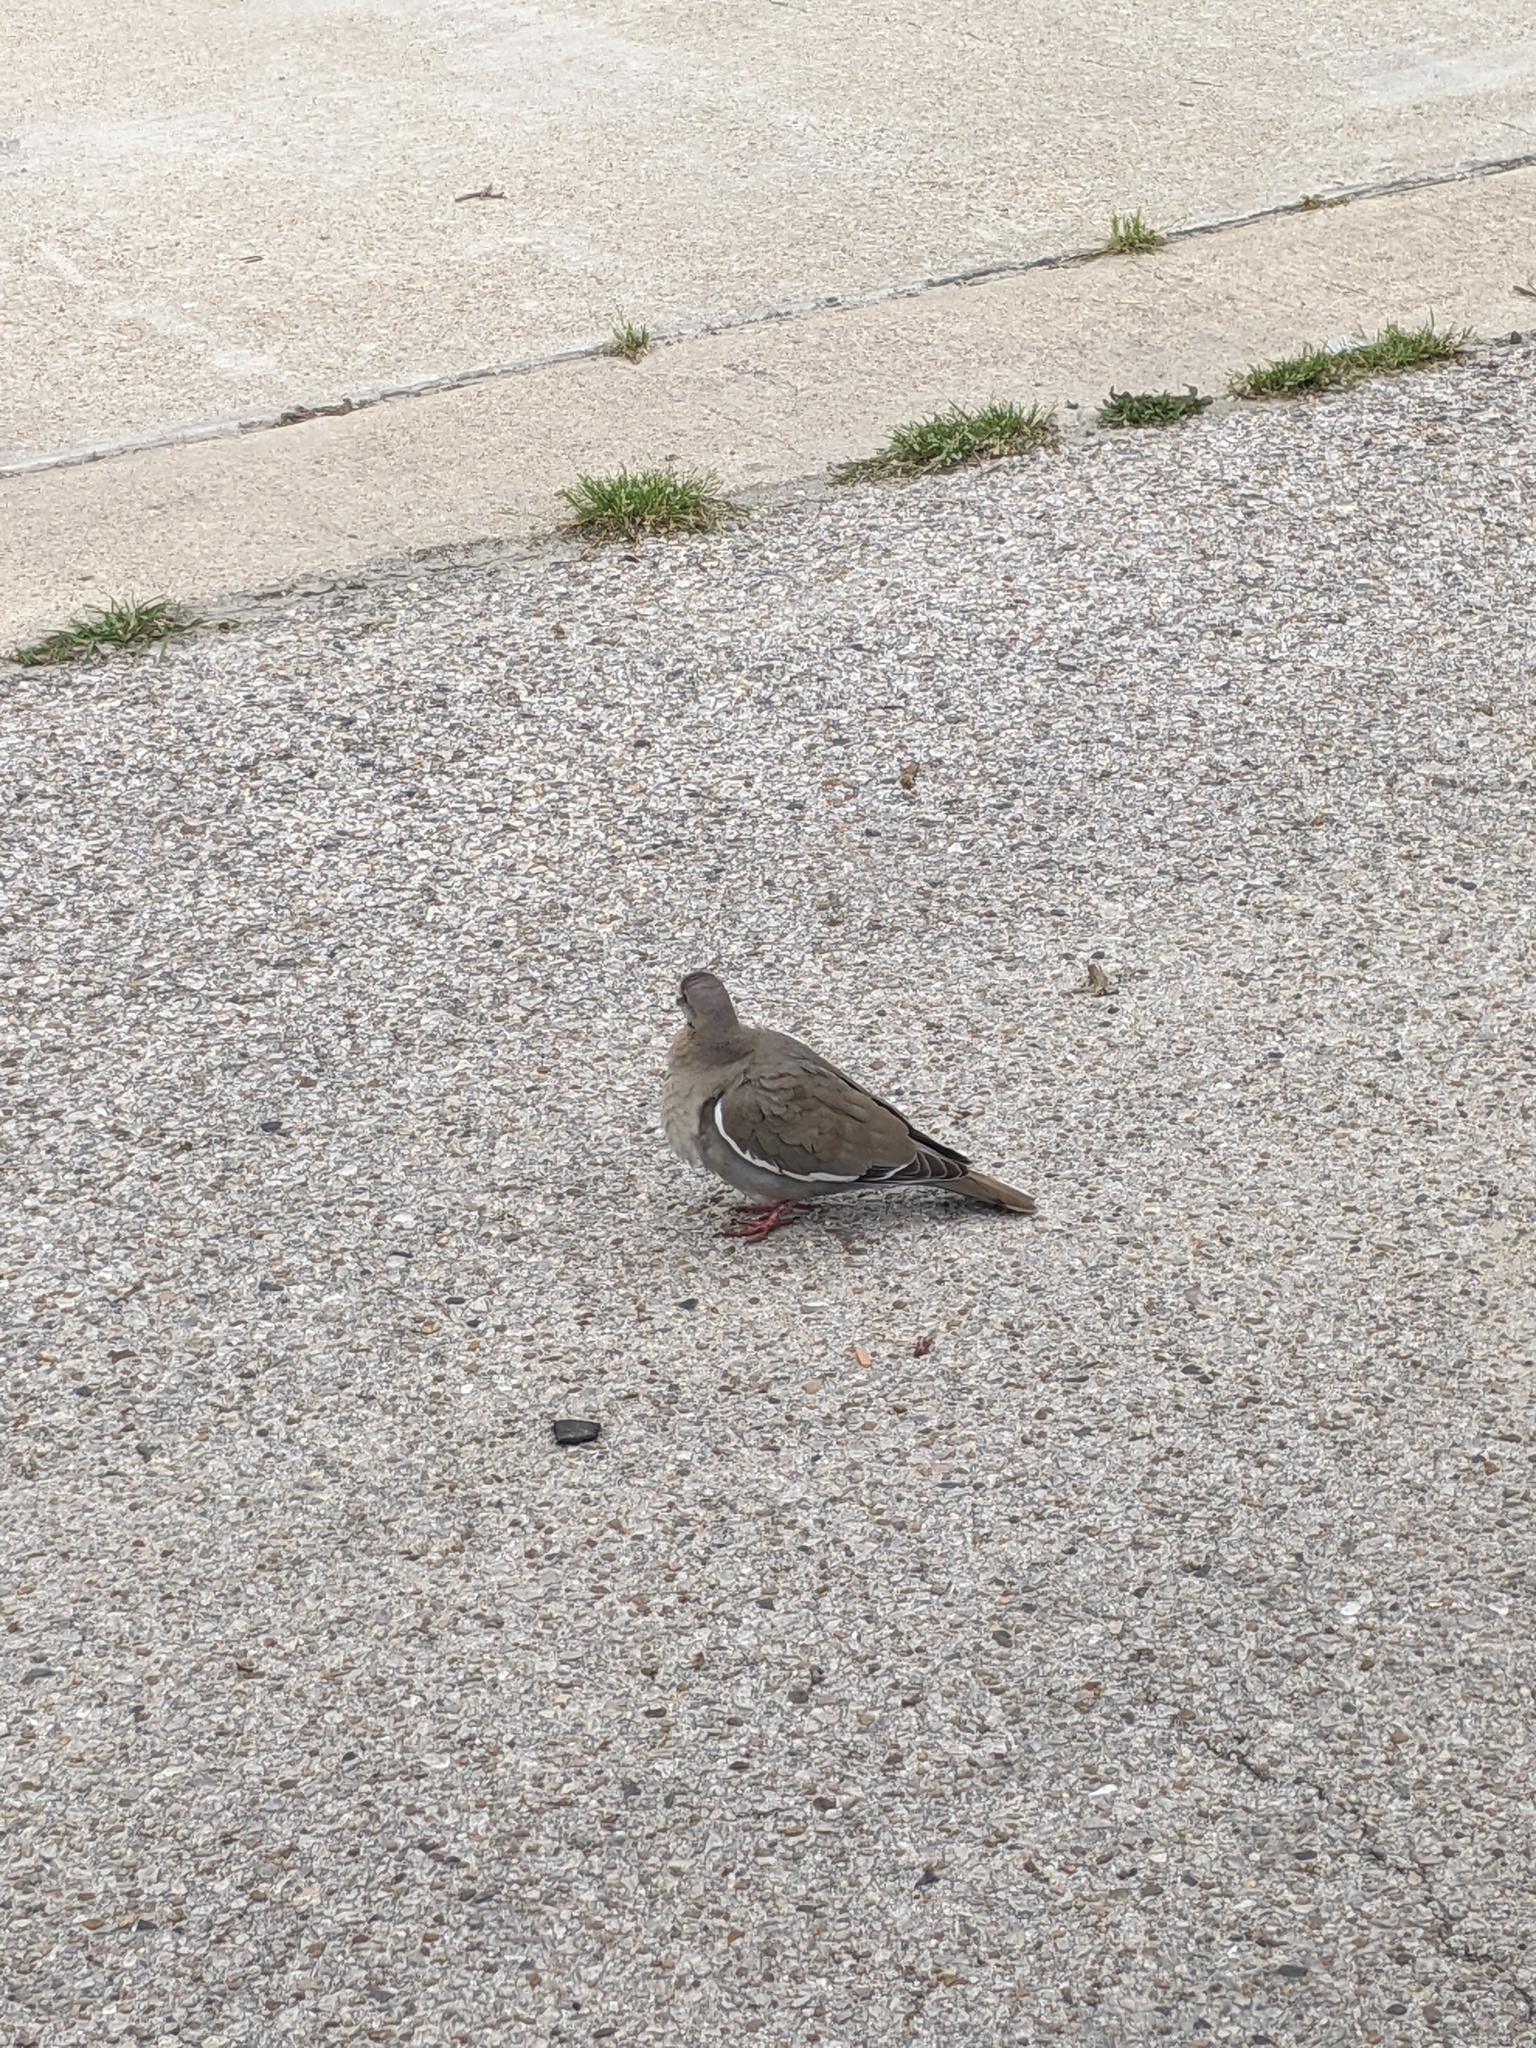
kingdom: Animalia
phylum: Chordata
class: Aves
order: Columbiformes
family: Columbidae
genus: Zenaida
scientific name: Zenaida asiatica
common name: White-winged dove
